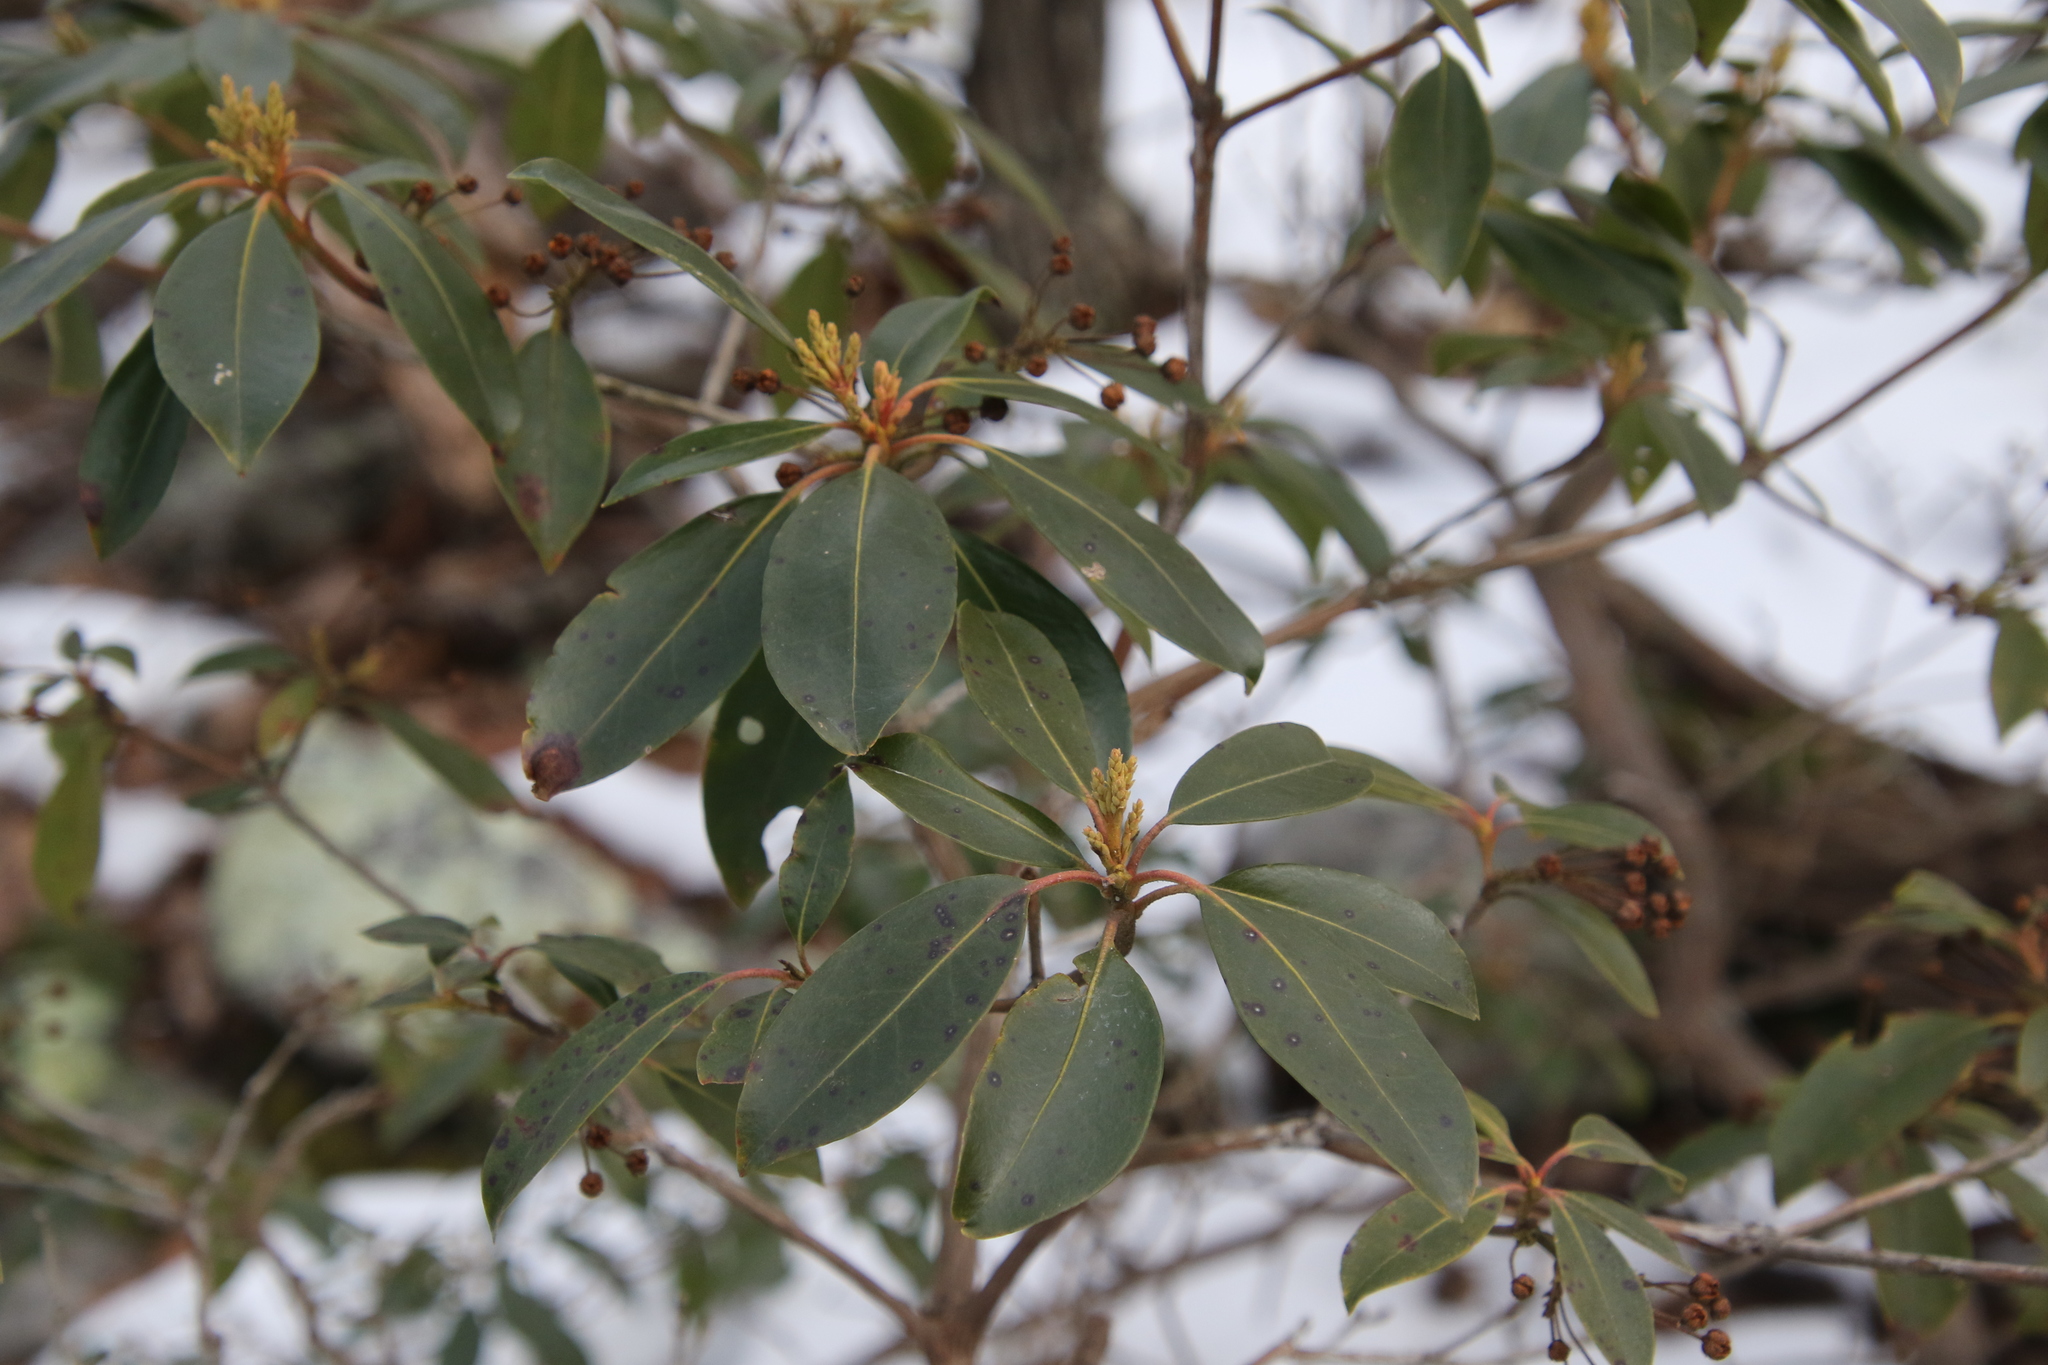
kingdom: Plantae
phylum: Tracheophyta
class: Magnoliopsida
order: Ericales
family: Ericaceae
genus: Kalmia
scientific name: Kalmia latifolia
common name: Mountain-laurel
